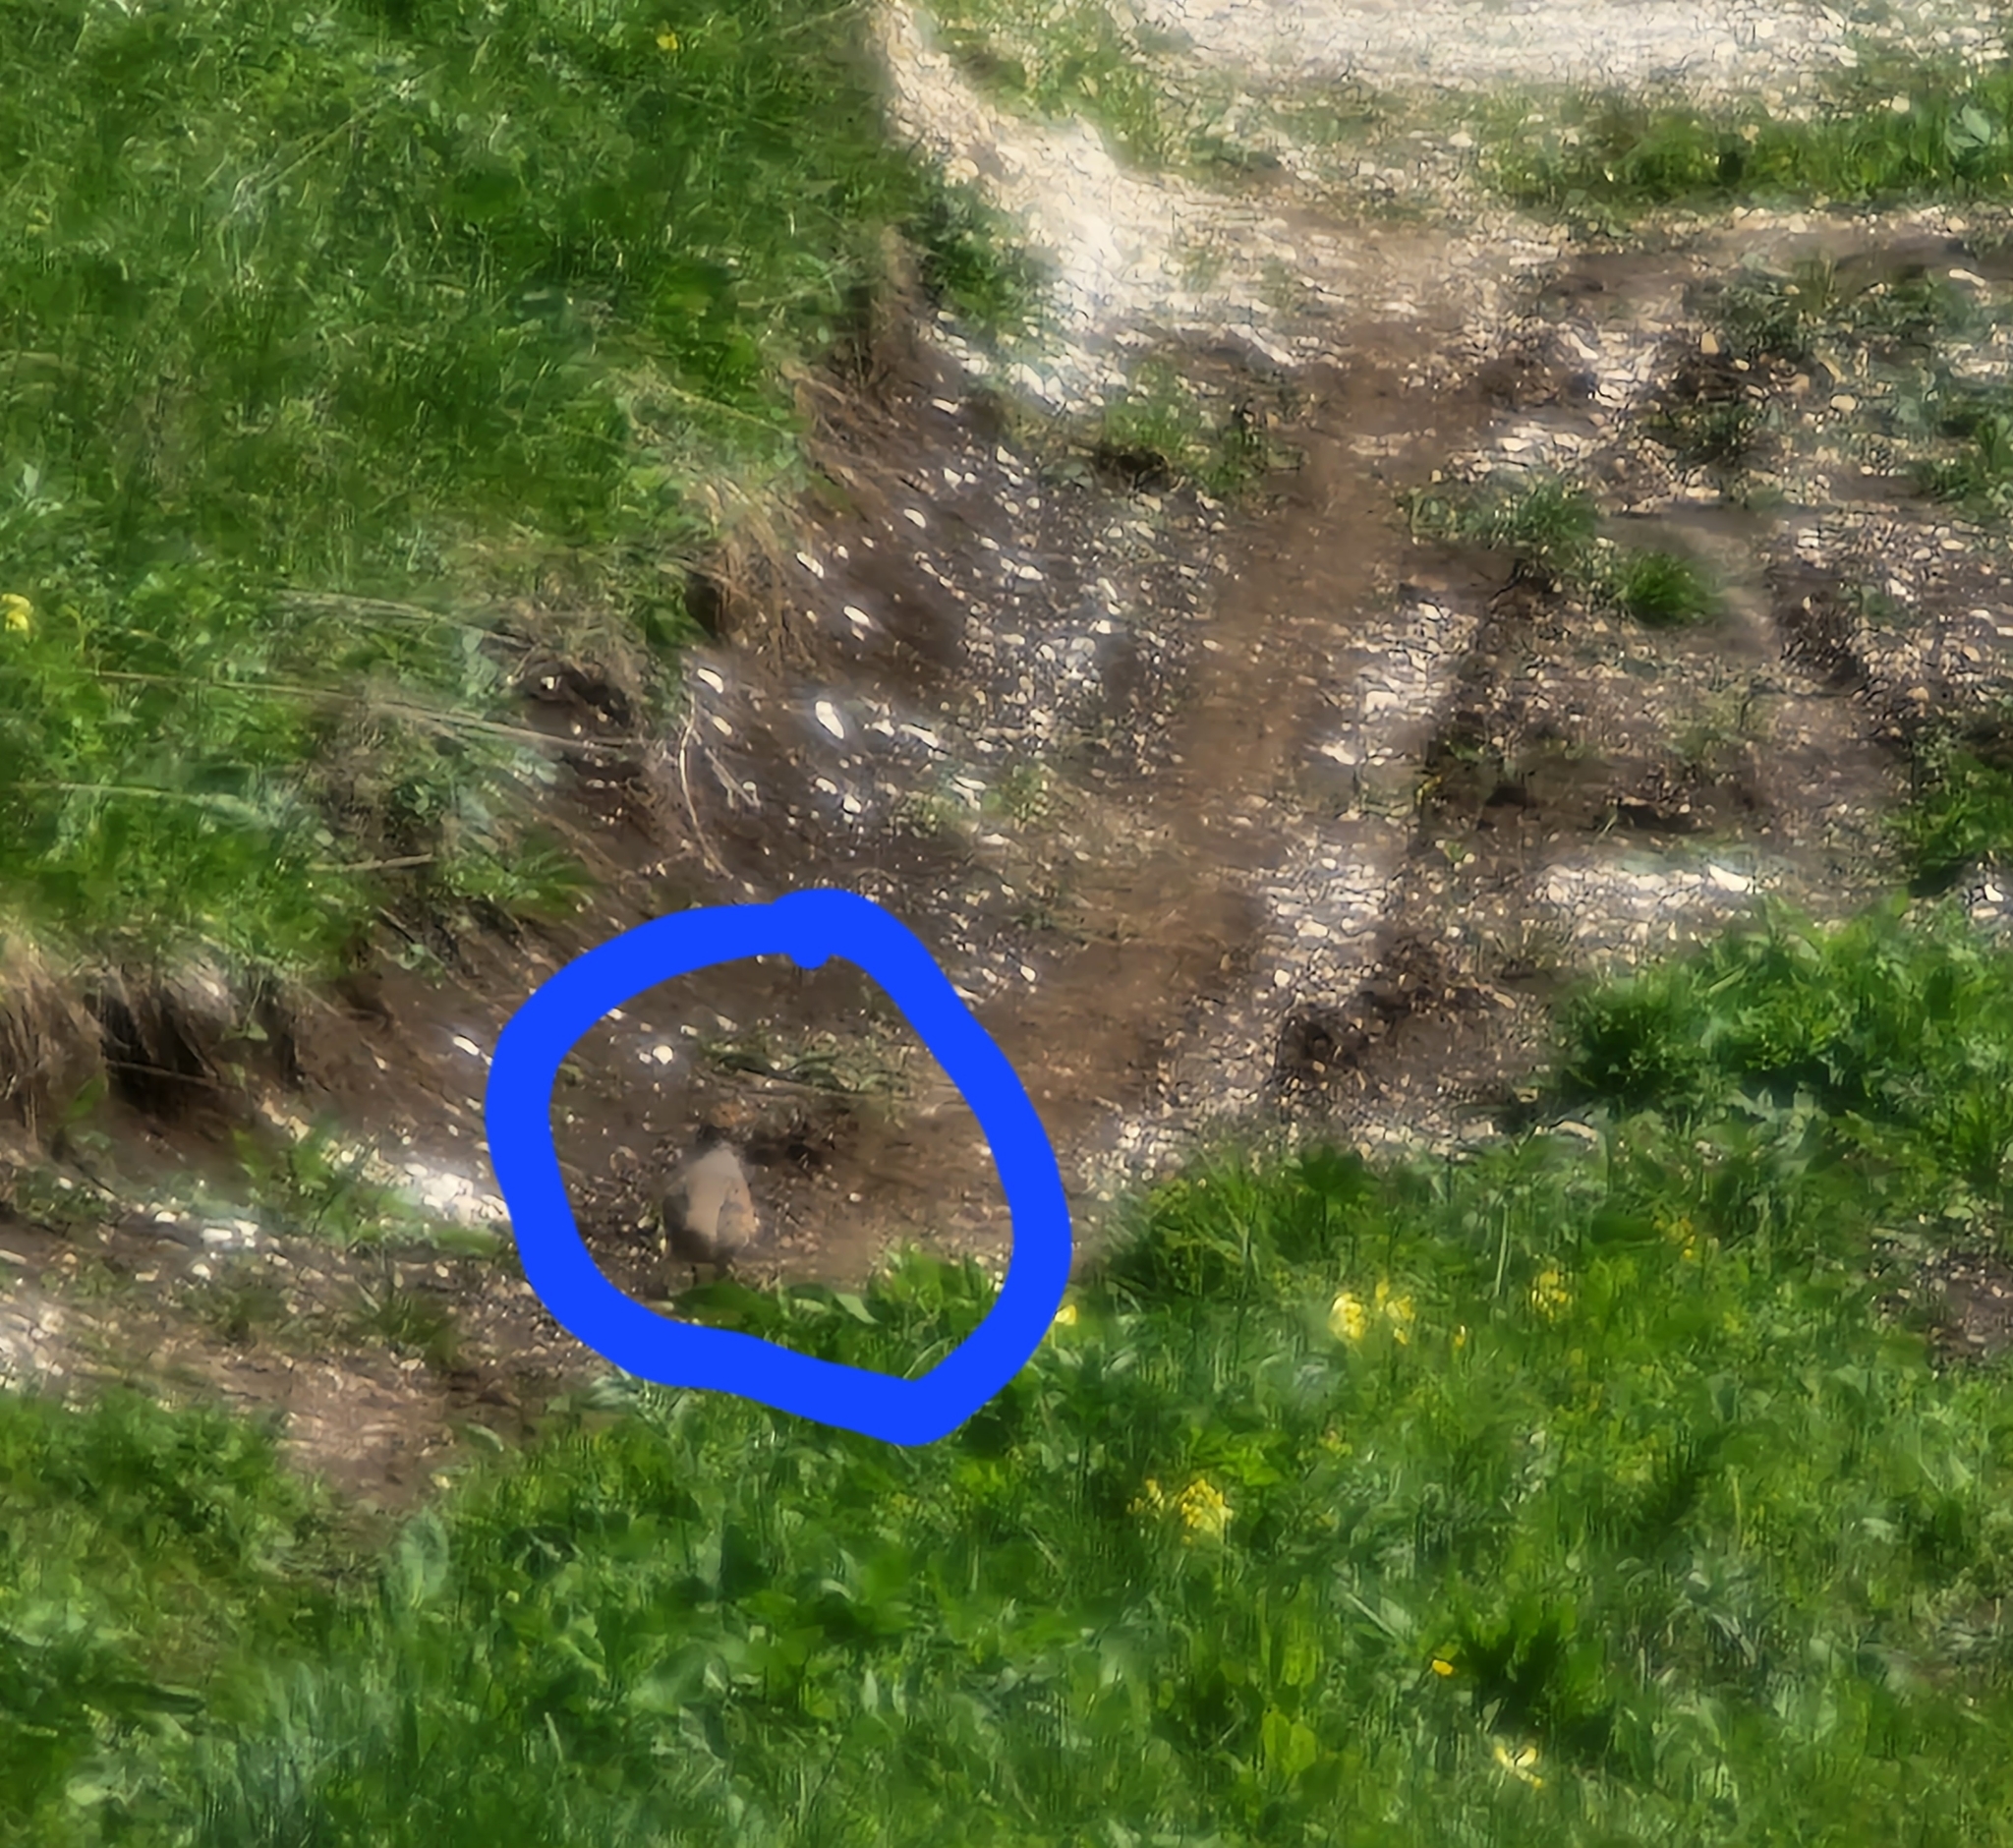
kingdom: Animalia
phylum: Chordata
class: Aves
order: Galliformes
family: Phasianidae
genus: Perdix
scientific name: Perdix perdix
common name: Grey partridge
